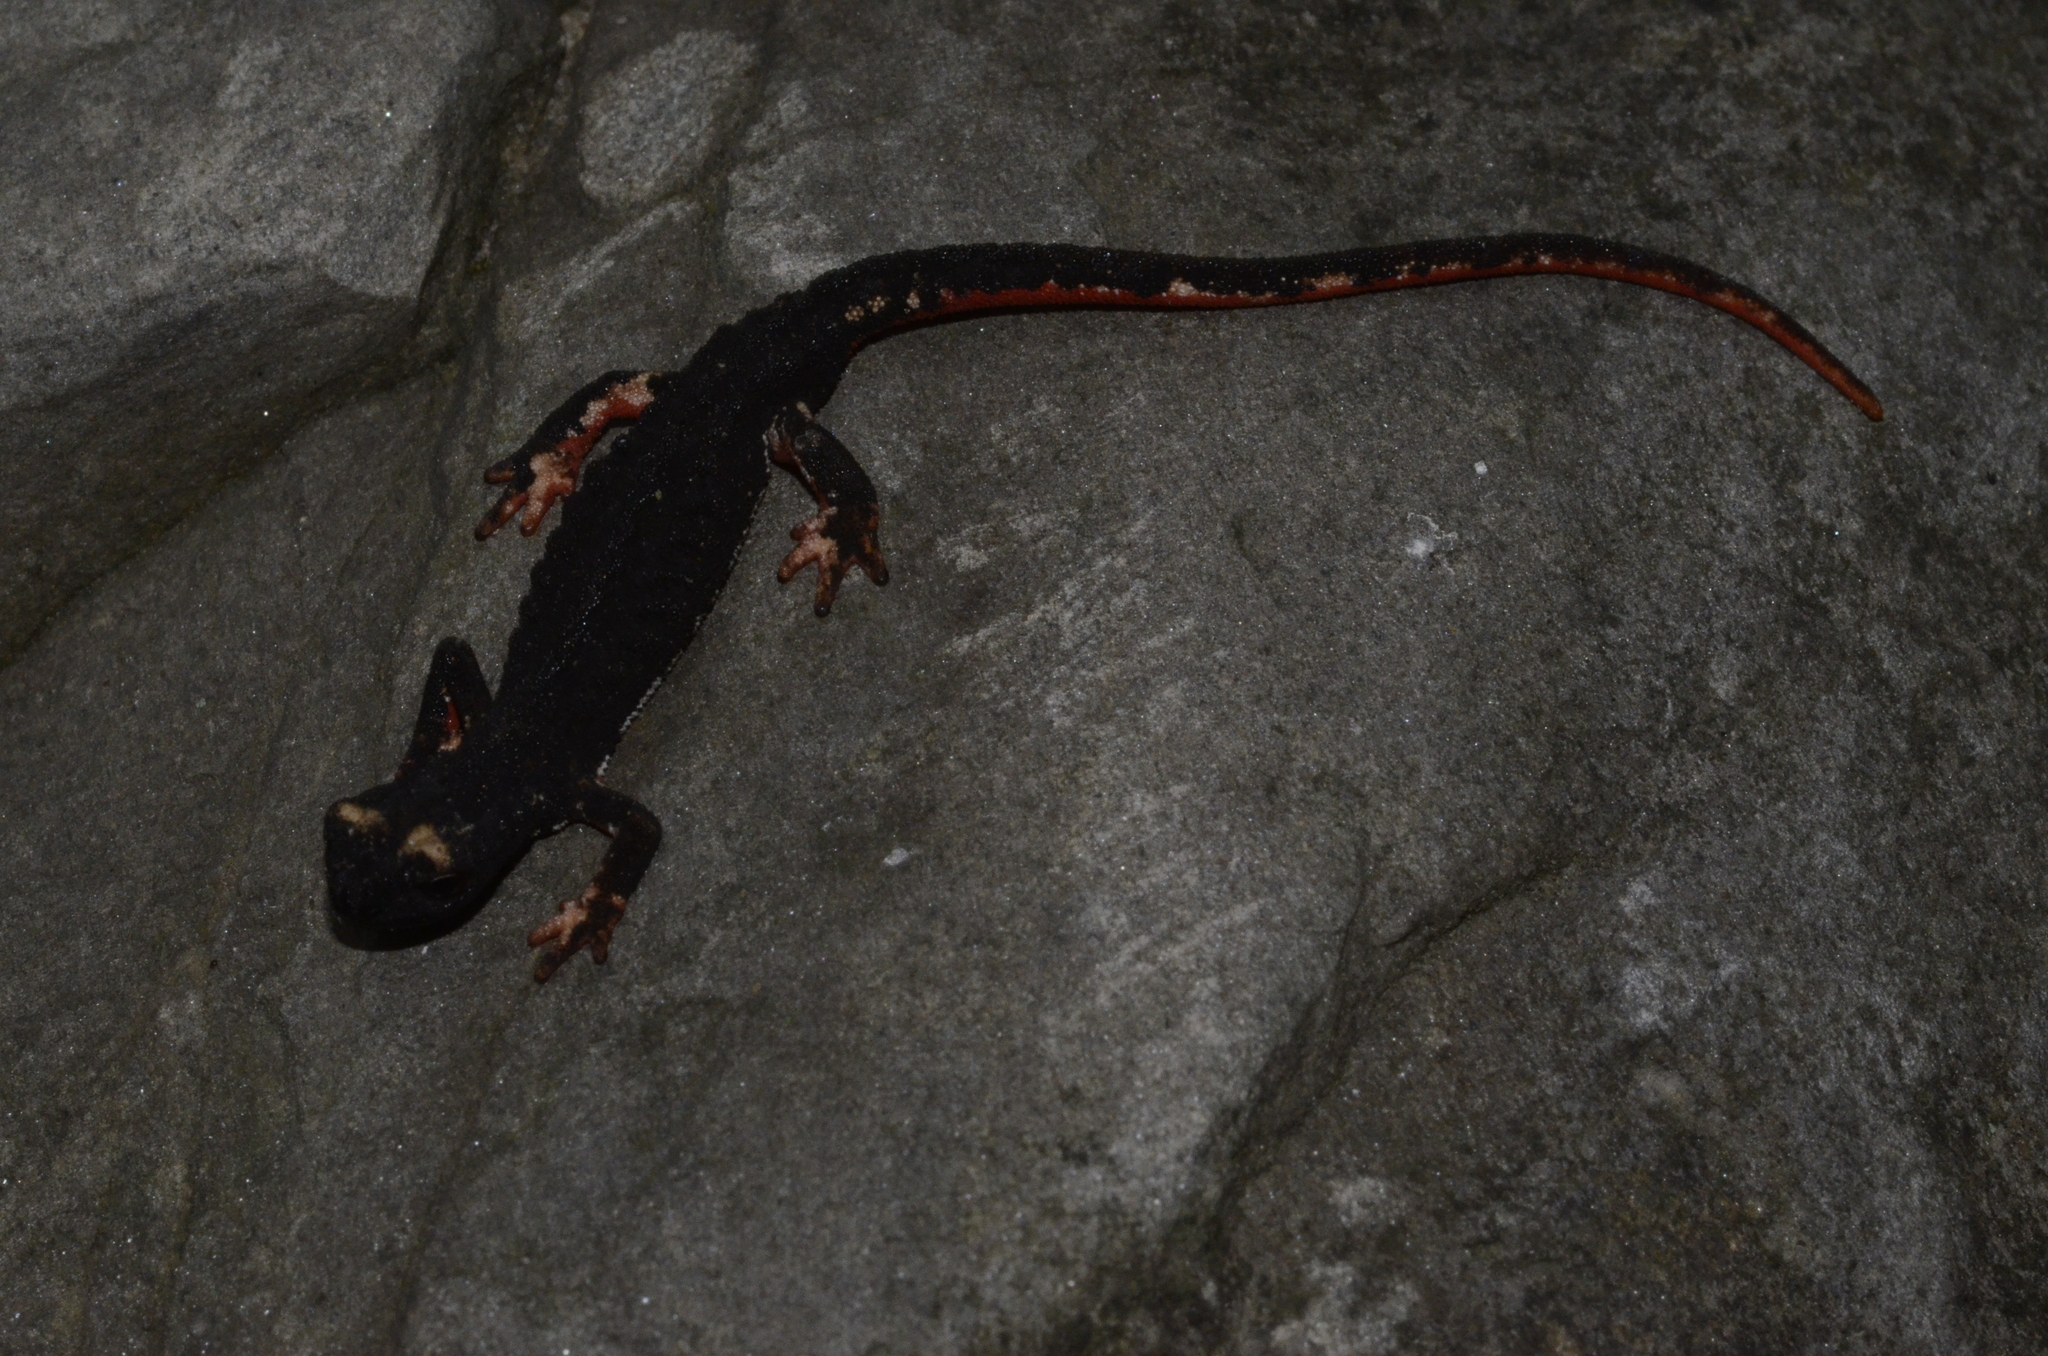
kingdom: Animalia
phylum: Chordata
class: Amphibia
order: Caudata
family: Salamandridae
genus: Salamandrina
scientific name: Salamandrina perspicillata
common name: Northern spectacled salamander
